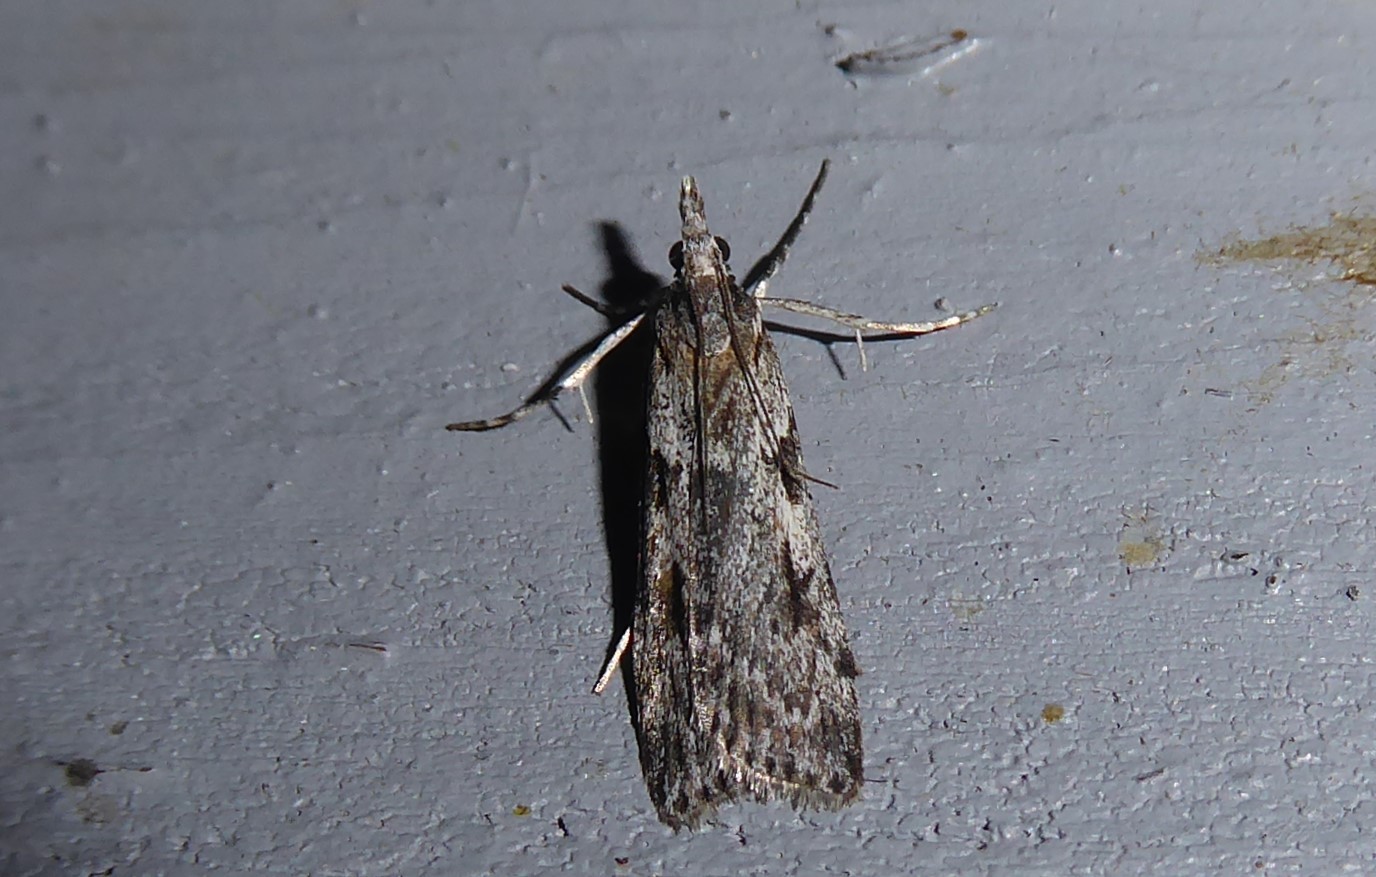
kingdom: Animalia
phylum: Arthropoda
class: Insecta
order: Lepidoptera
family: Crambidae
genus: Scoparia
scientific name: Scoparia halopis
